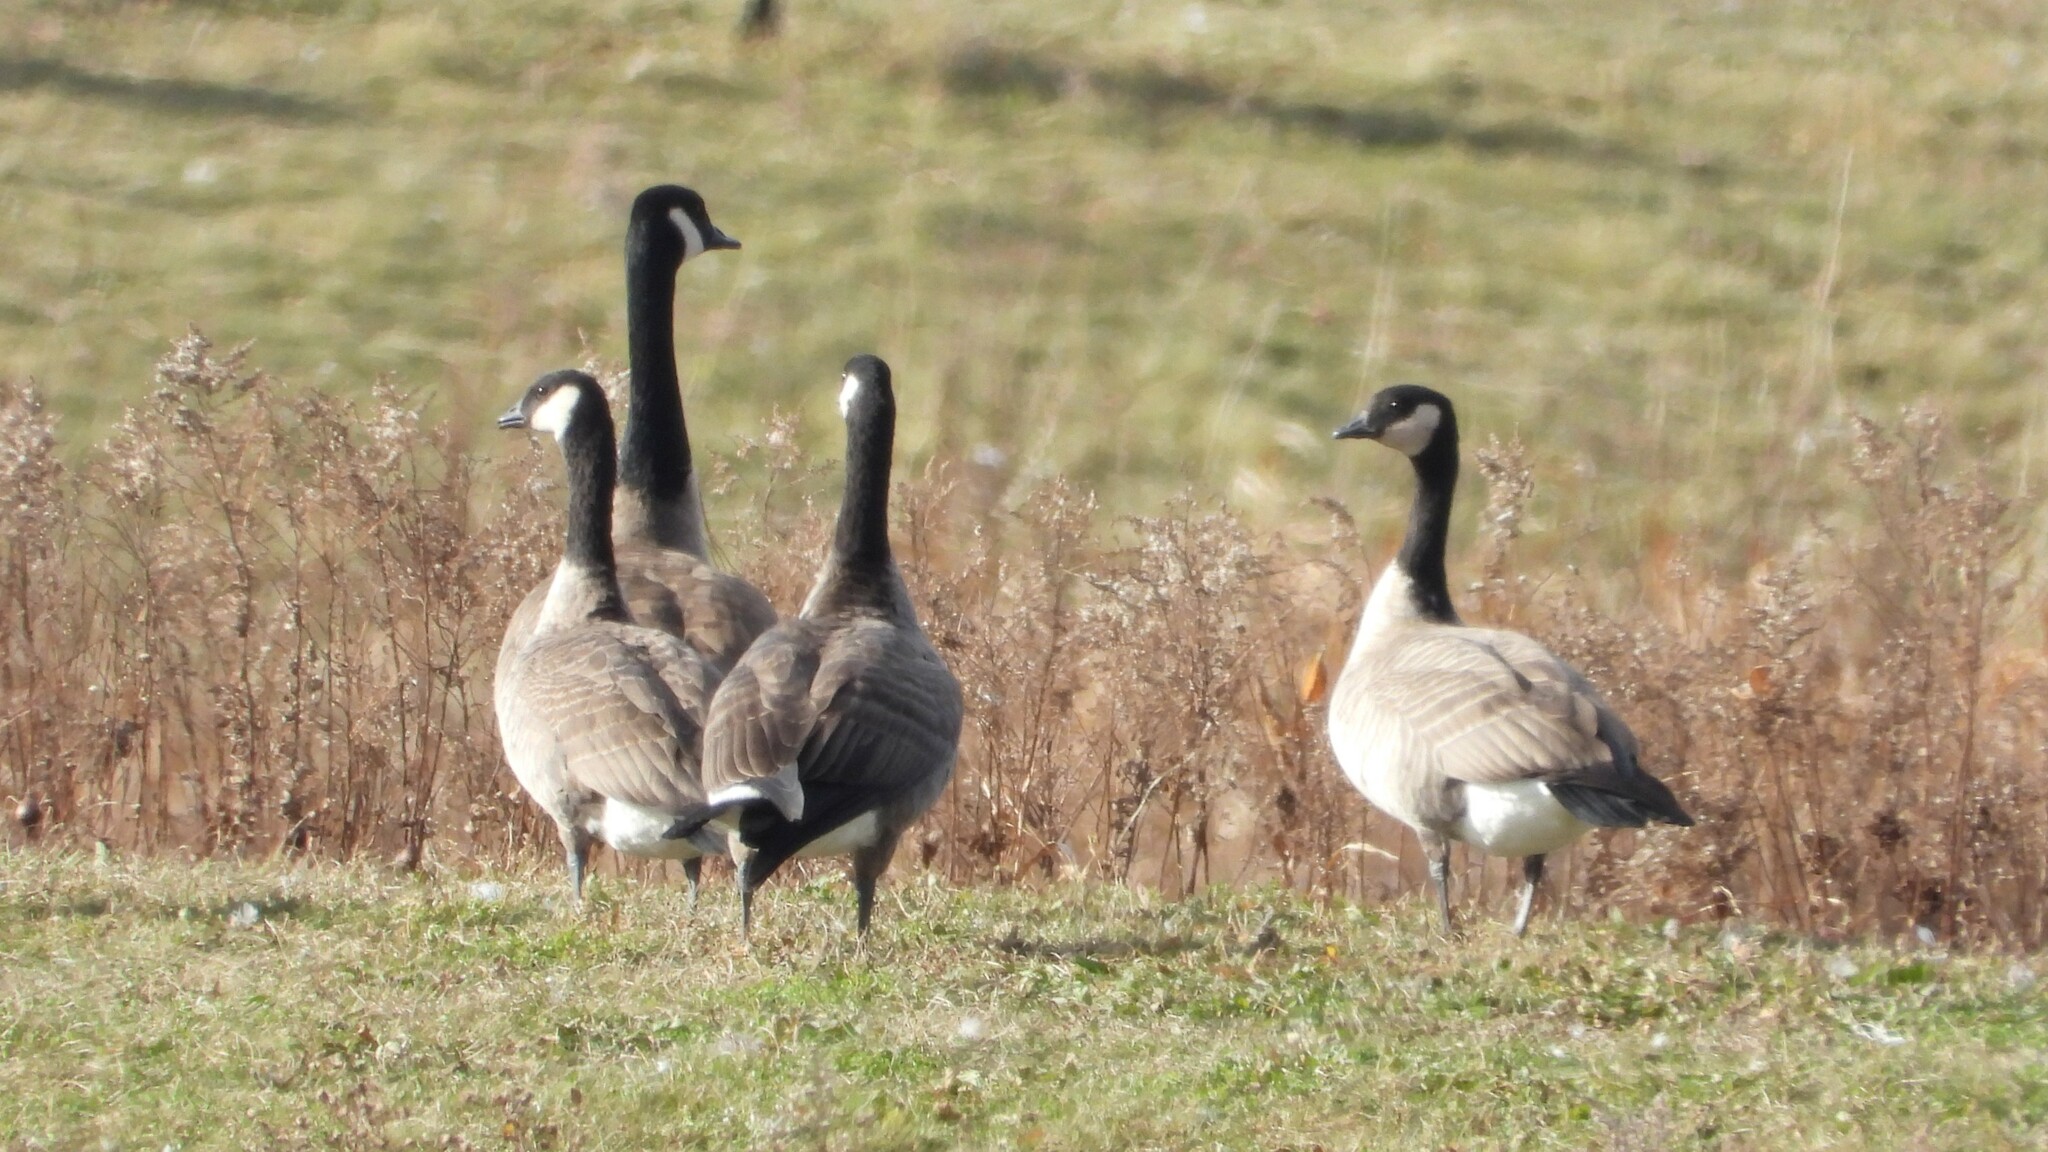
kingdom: Animalia
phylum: Chordata
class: Aves
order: Anseriformes
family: Anatidae
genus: Branta
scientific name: Branta hutchinsii
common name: Cackling goose
